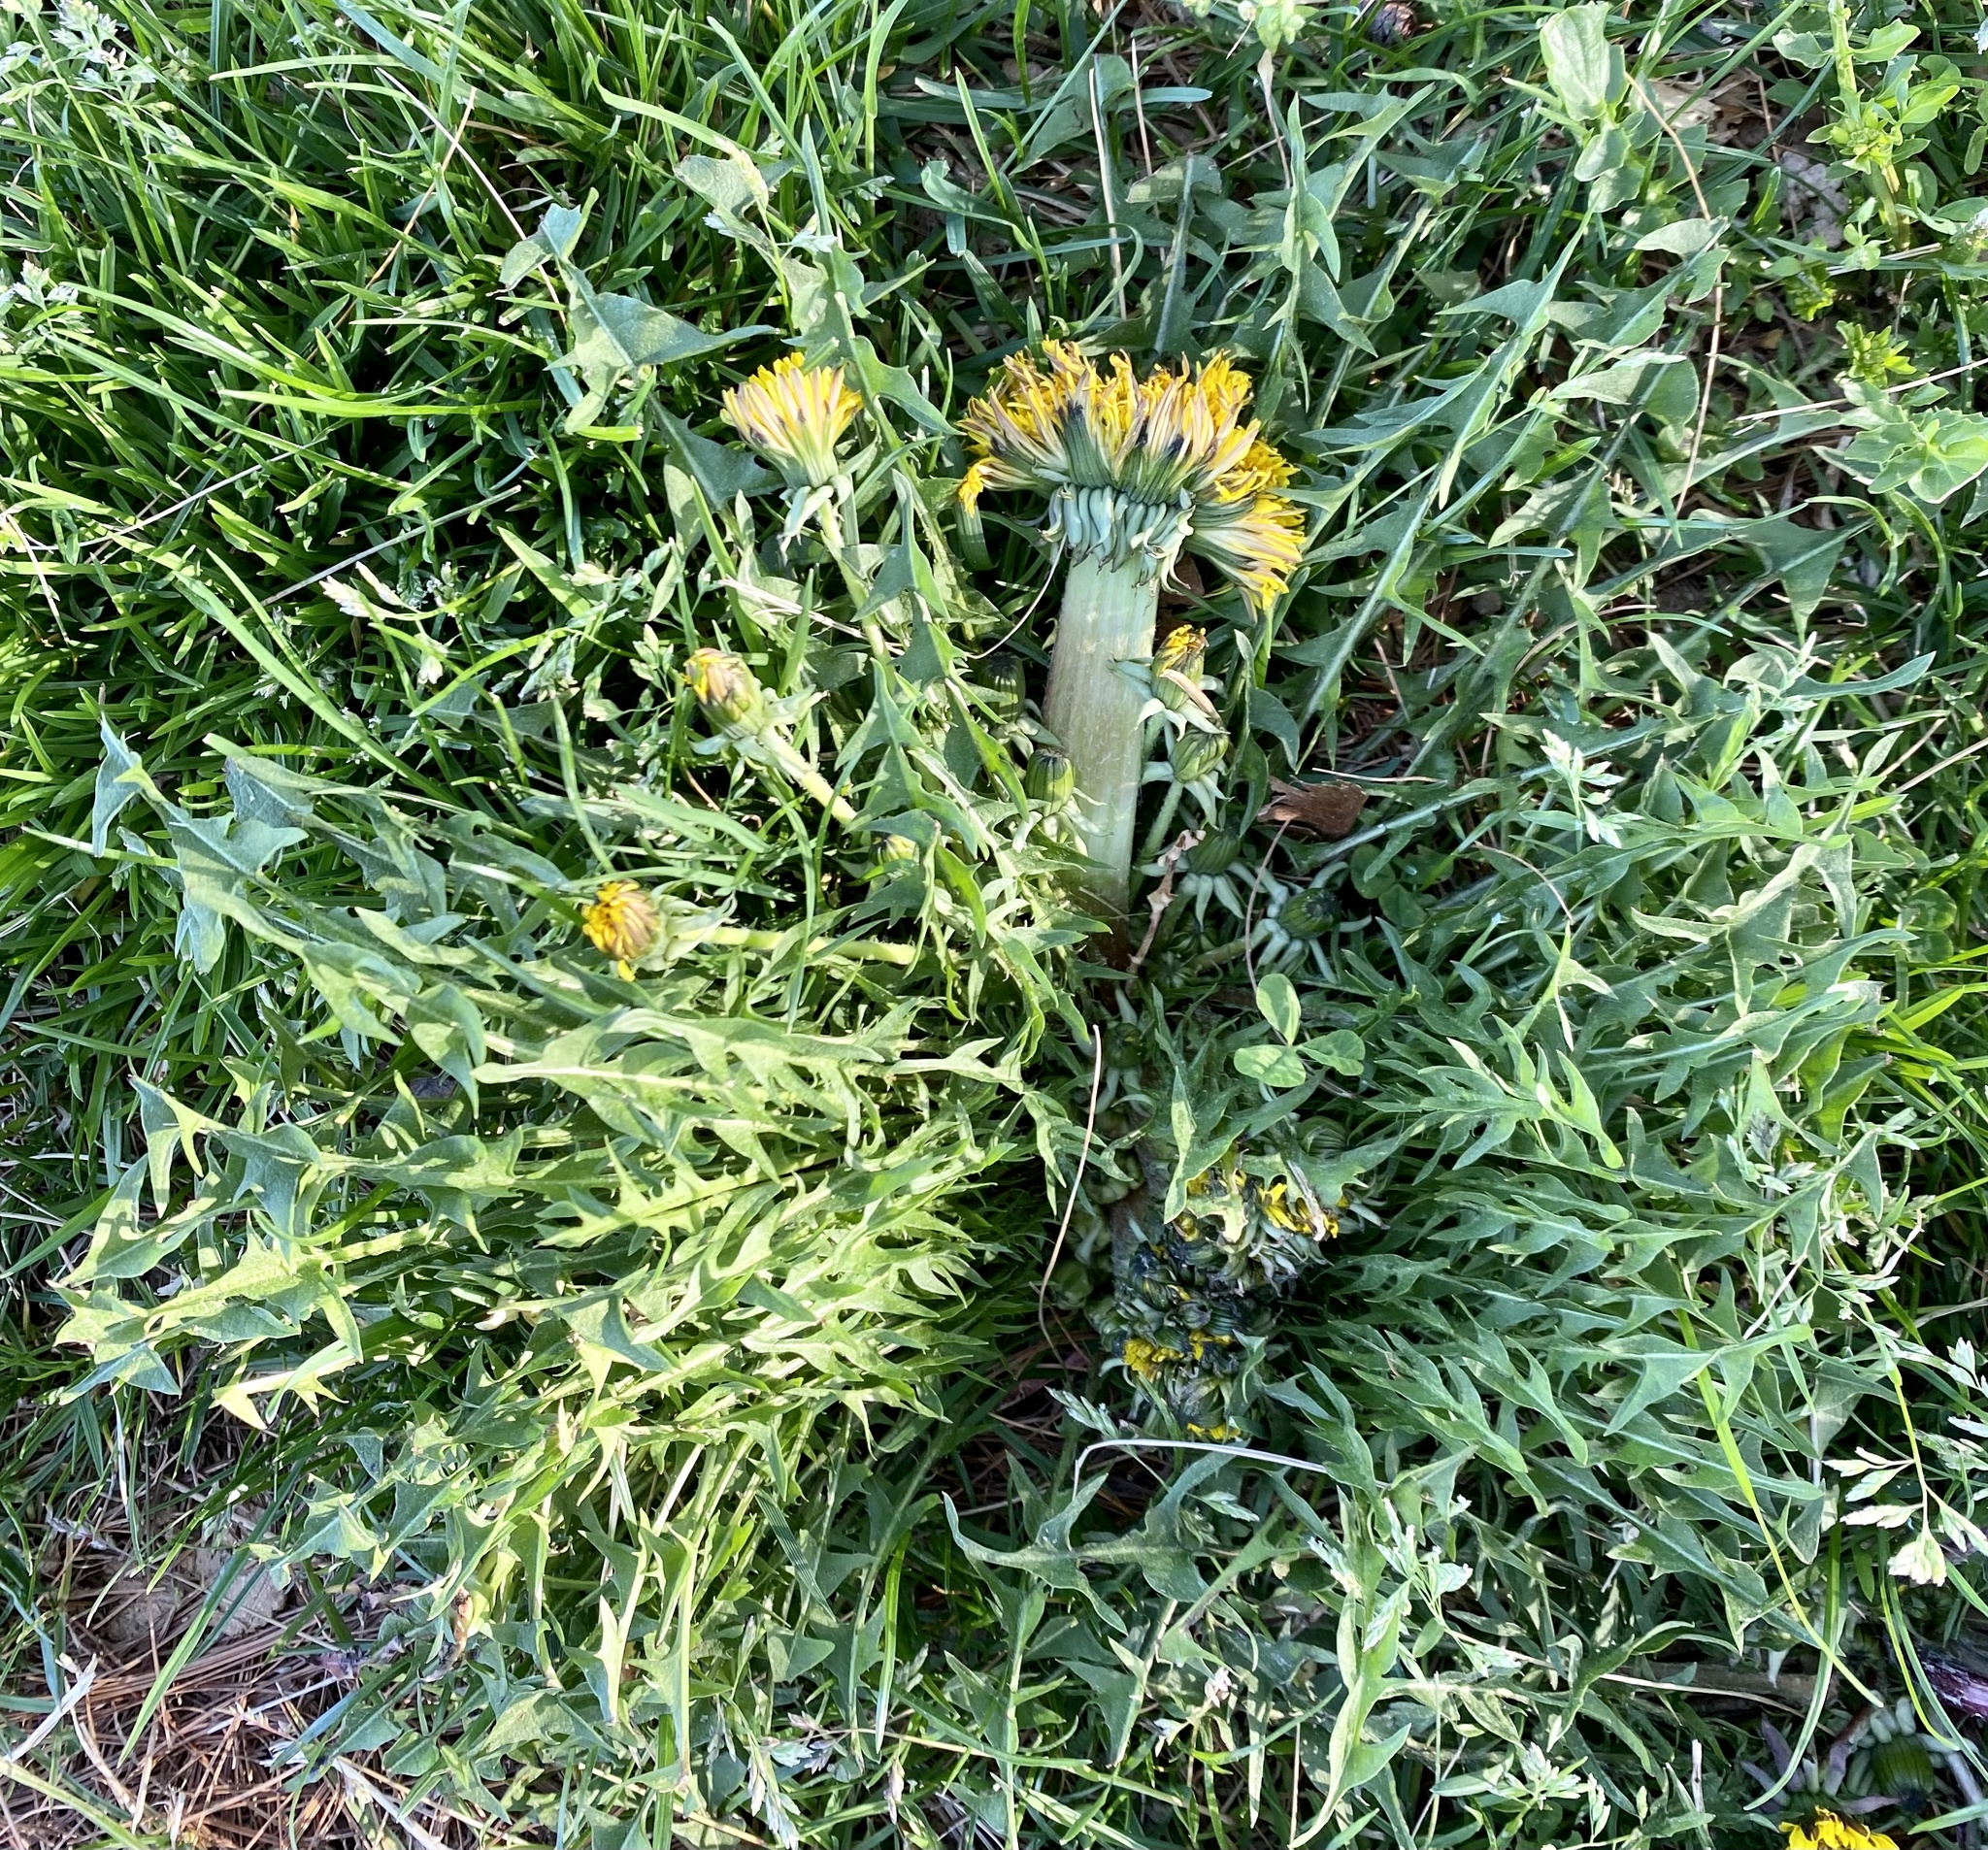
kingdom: Plantae
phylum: Tracheophyta
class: Magnoliopsida
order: Asterales
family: Asteraceae
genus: Taraxacum
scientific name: Taraxacum officinale
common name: Common dandelion
